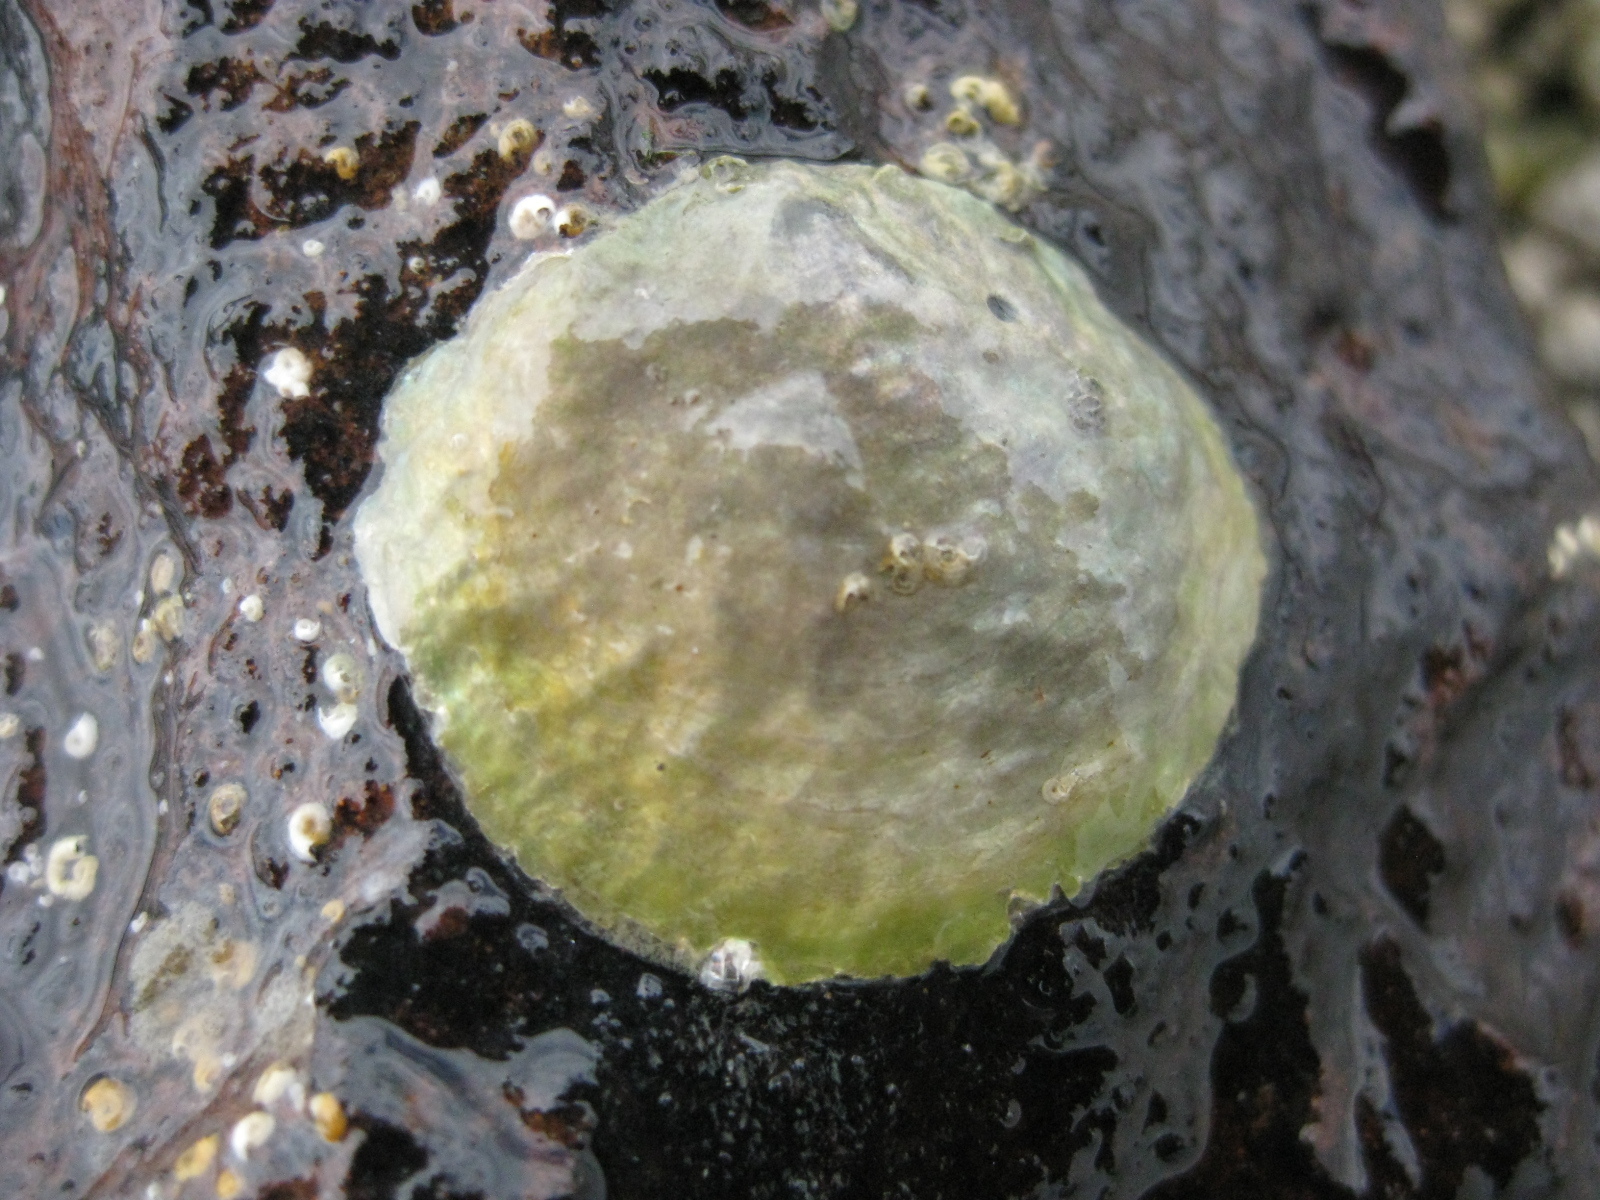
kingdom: Animalia
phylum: Mollusca
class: Bivalvia
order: Pectinida
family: Anomiidae
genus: Anomia
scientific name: Anomia trigonopsis
